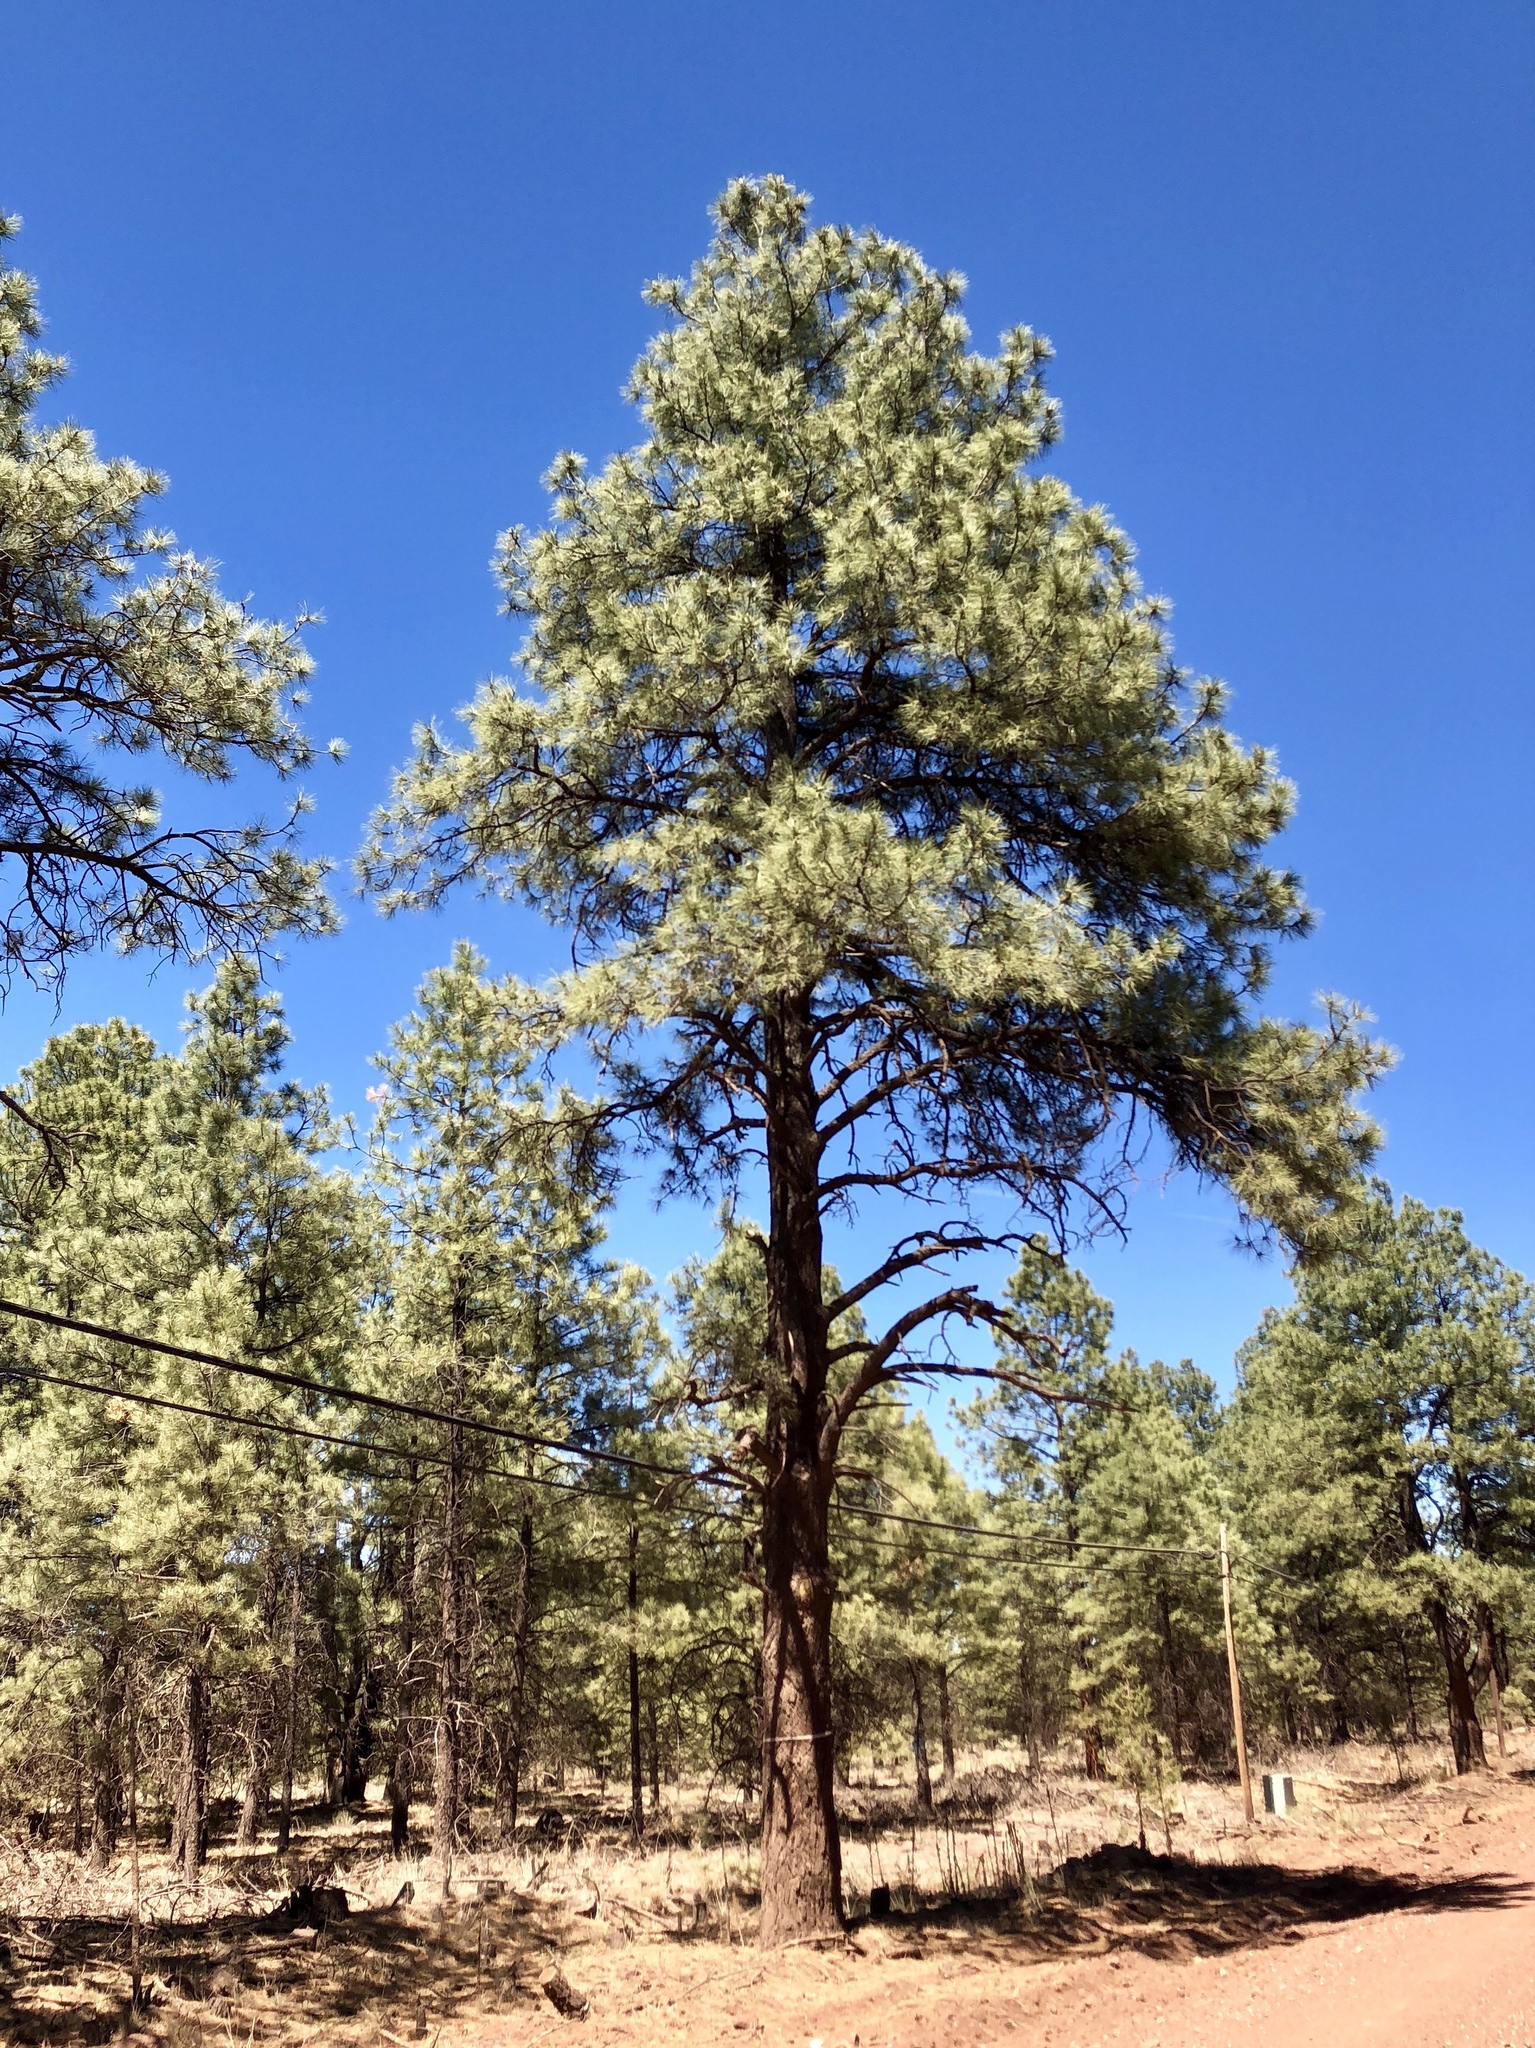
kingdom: Plantae
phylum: Tracheophyta
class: Pinopsida
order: Pinales
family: Pinaceae
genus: Pinus
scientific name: Pinus ponderosa
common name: Western yellow-pine
